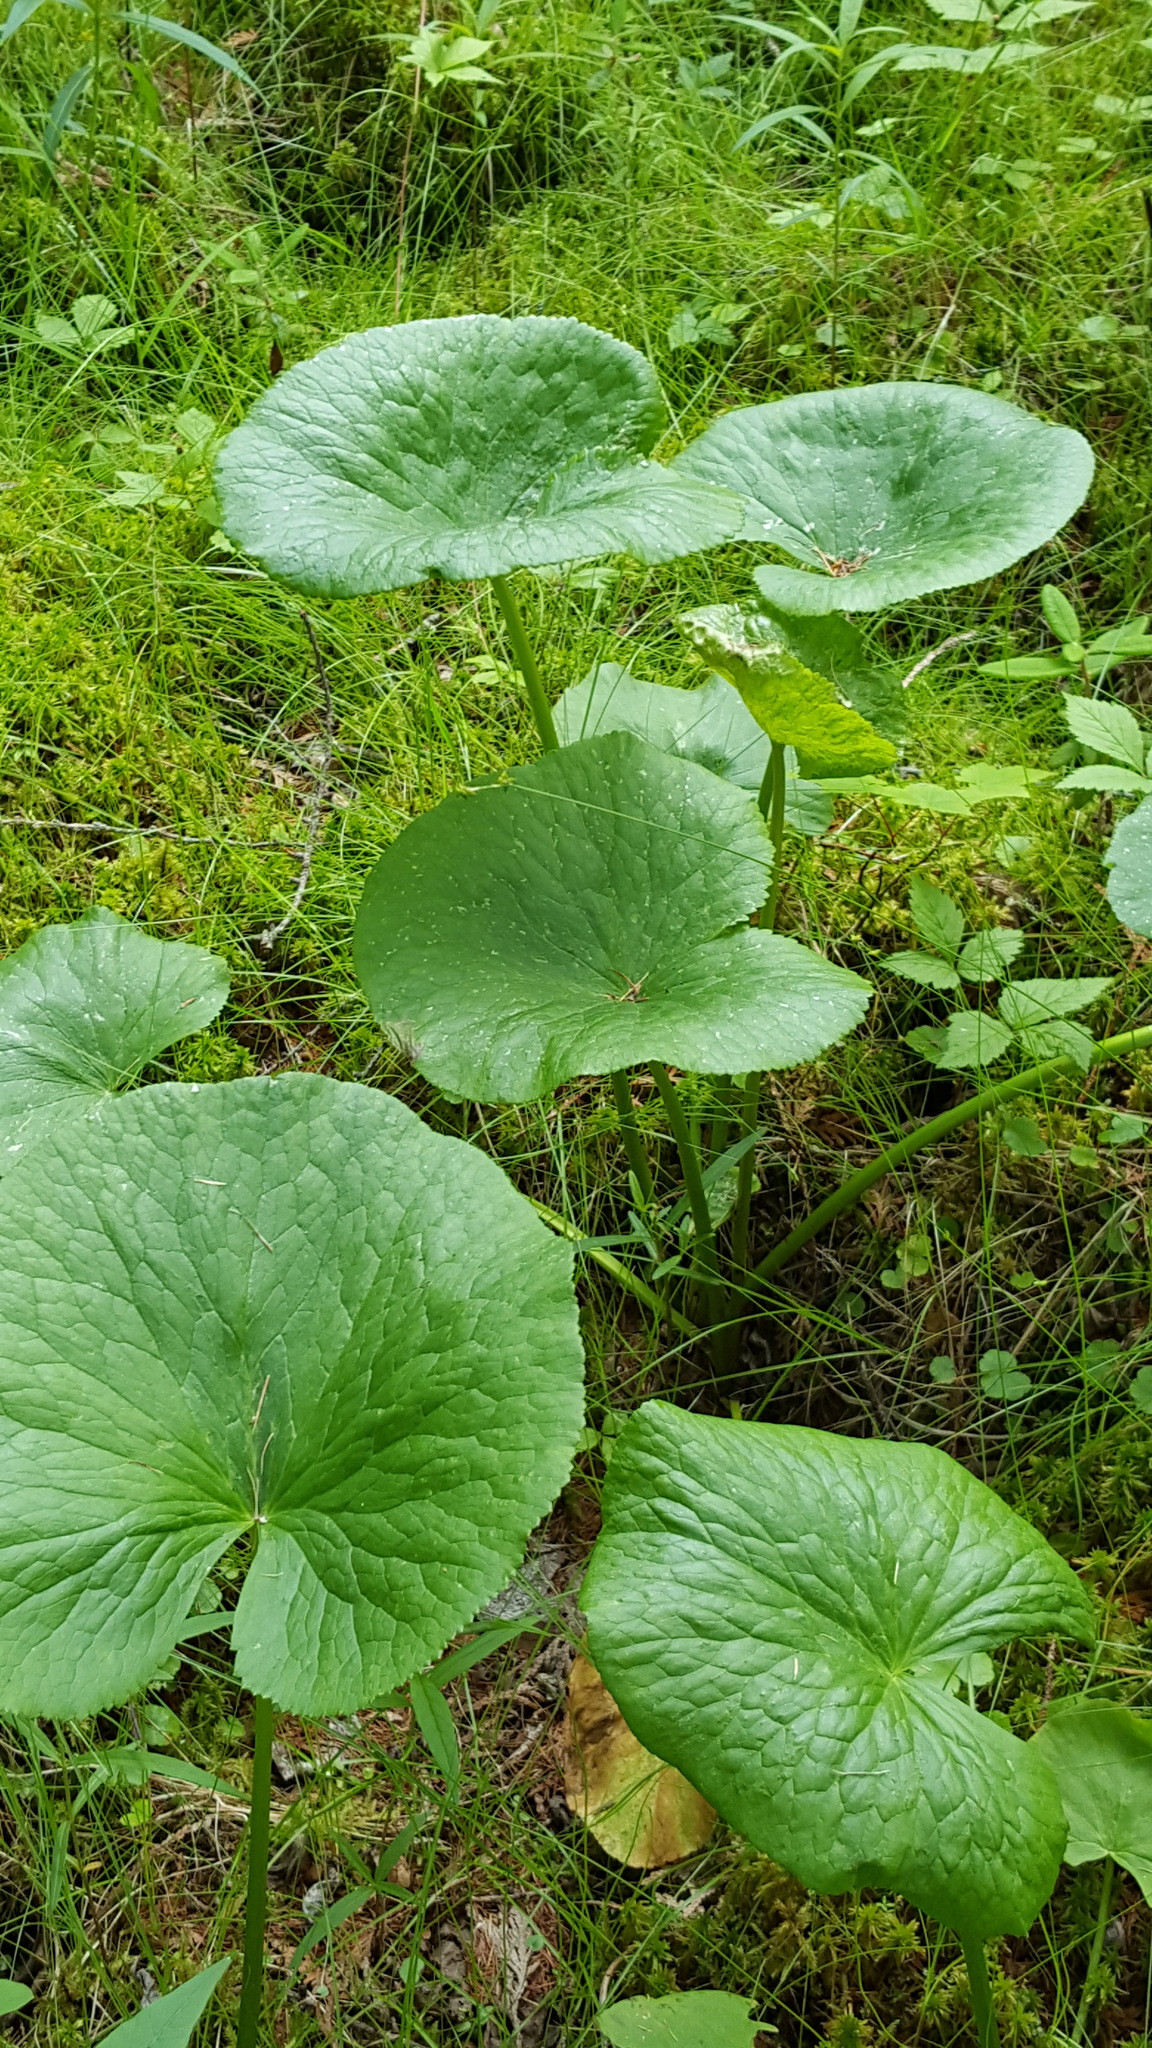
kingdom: Plantae
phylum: Tracheophyta
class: Magnoliopsida
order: Ranunculales
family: Ranunculaceae
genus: Caltha
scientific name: Caltha palustris
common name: Marsh marigold
